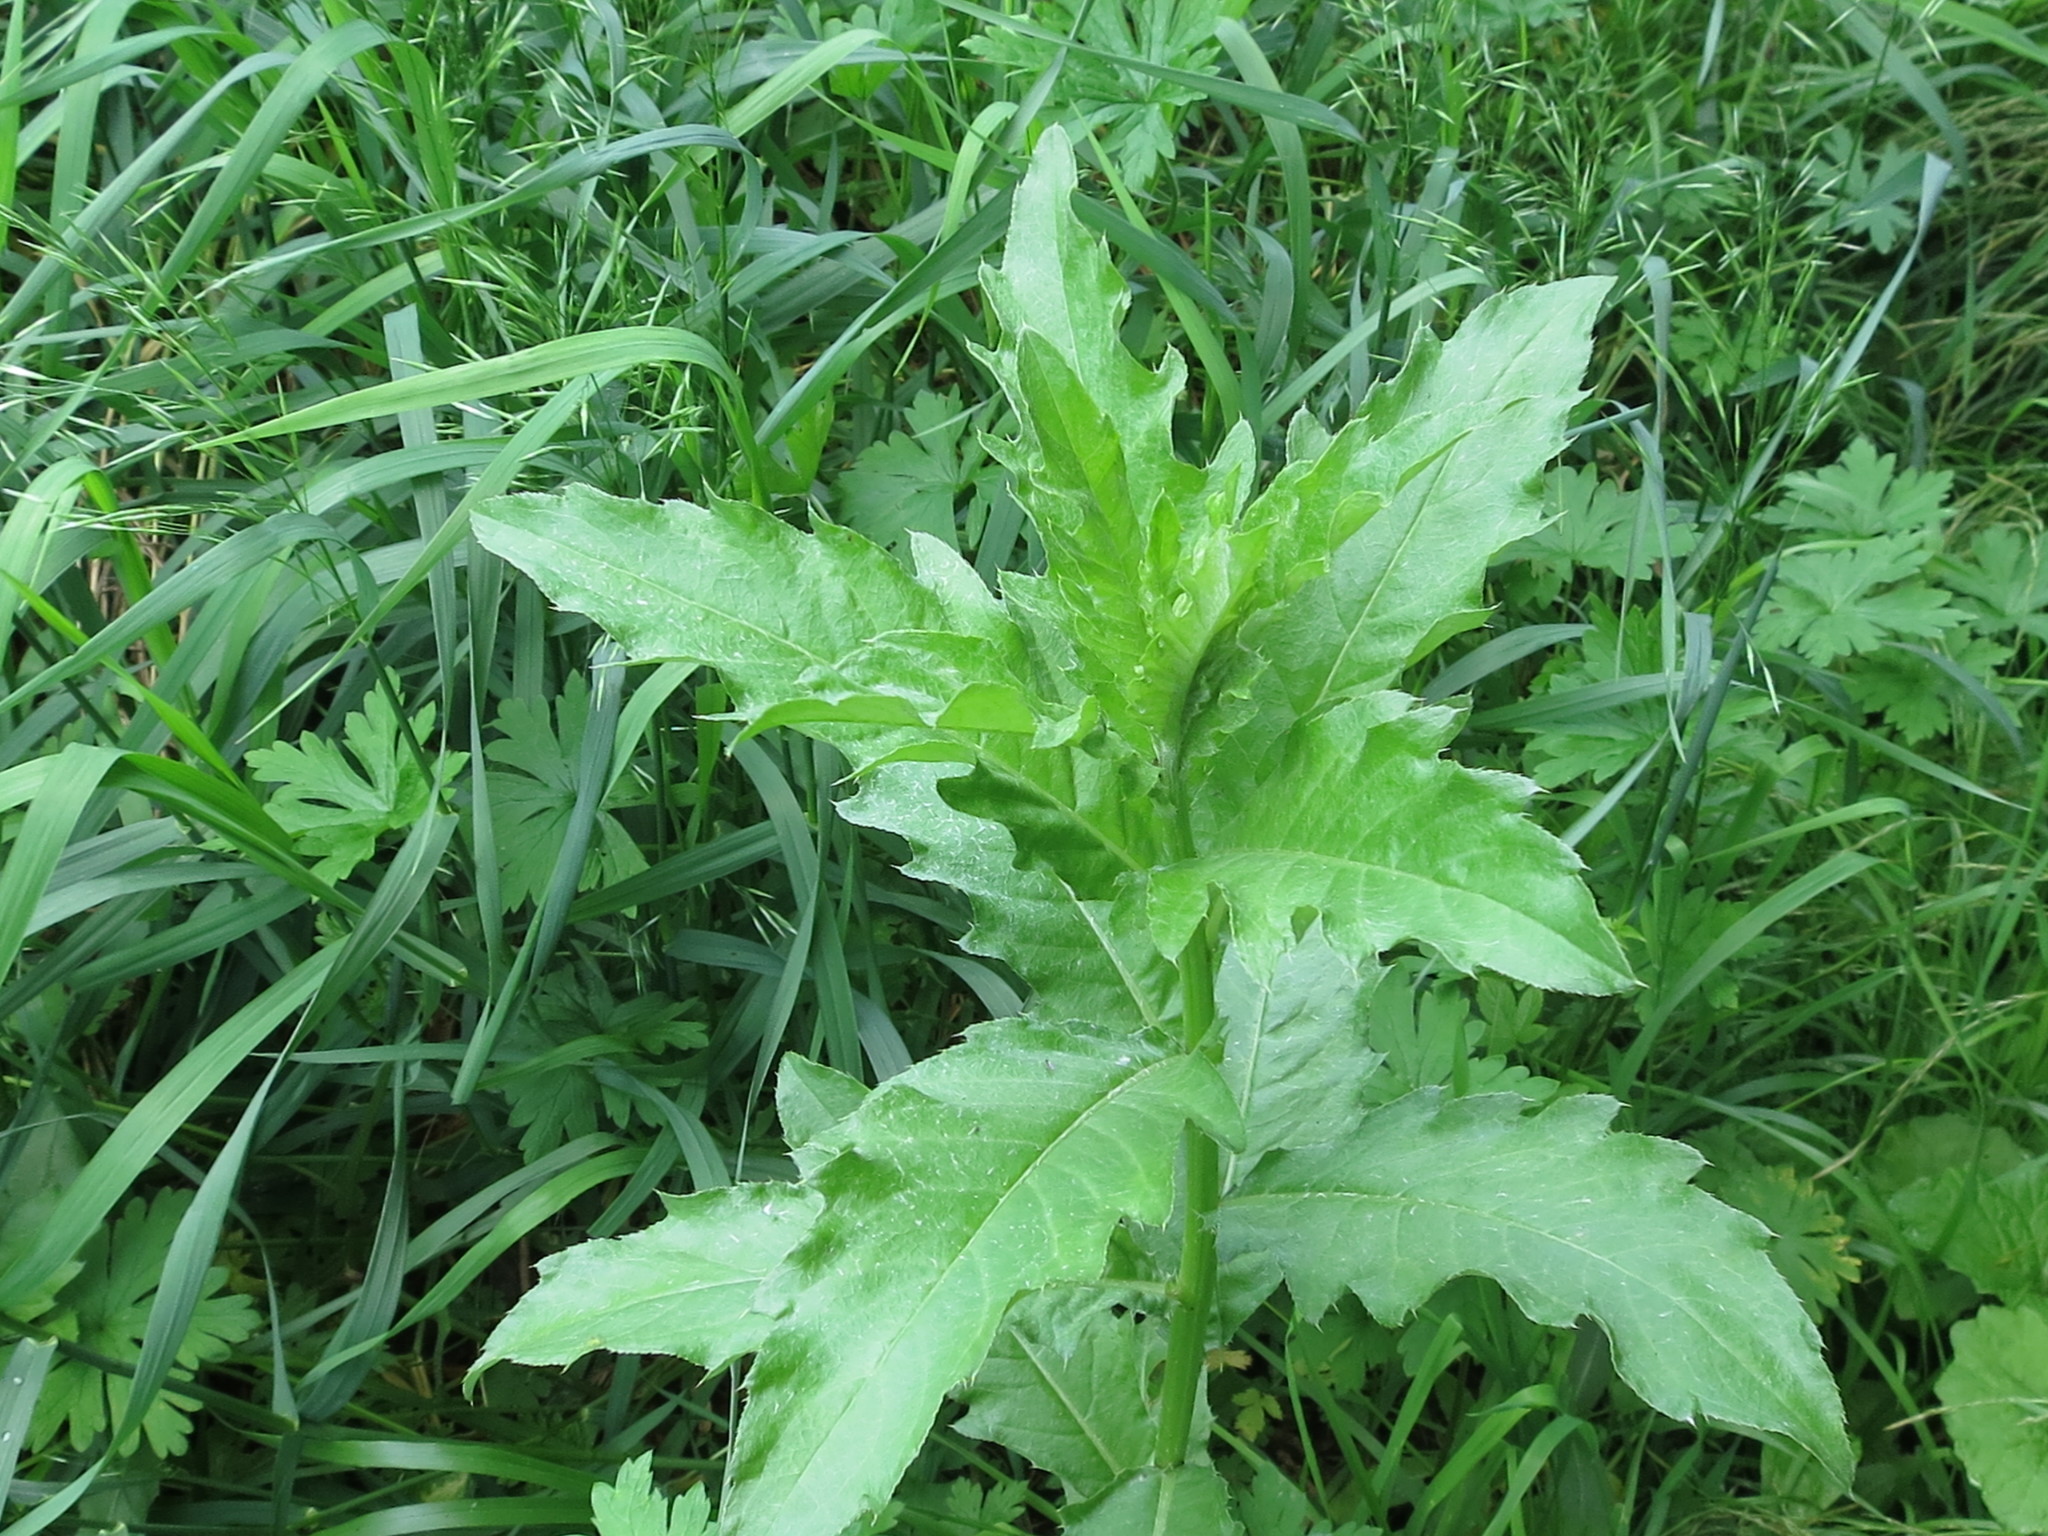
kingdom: Plantae
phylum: Tracheophyta
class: Magnoliopsida
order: Asterales
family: Asteraceae
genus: Cirsium
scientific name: Cirsium arvense
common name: Creeping thistle
